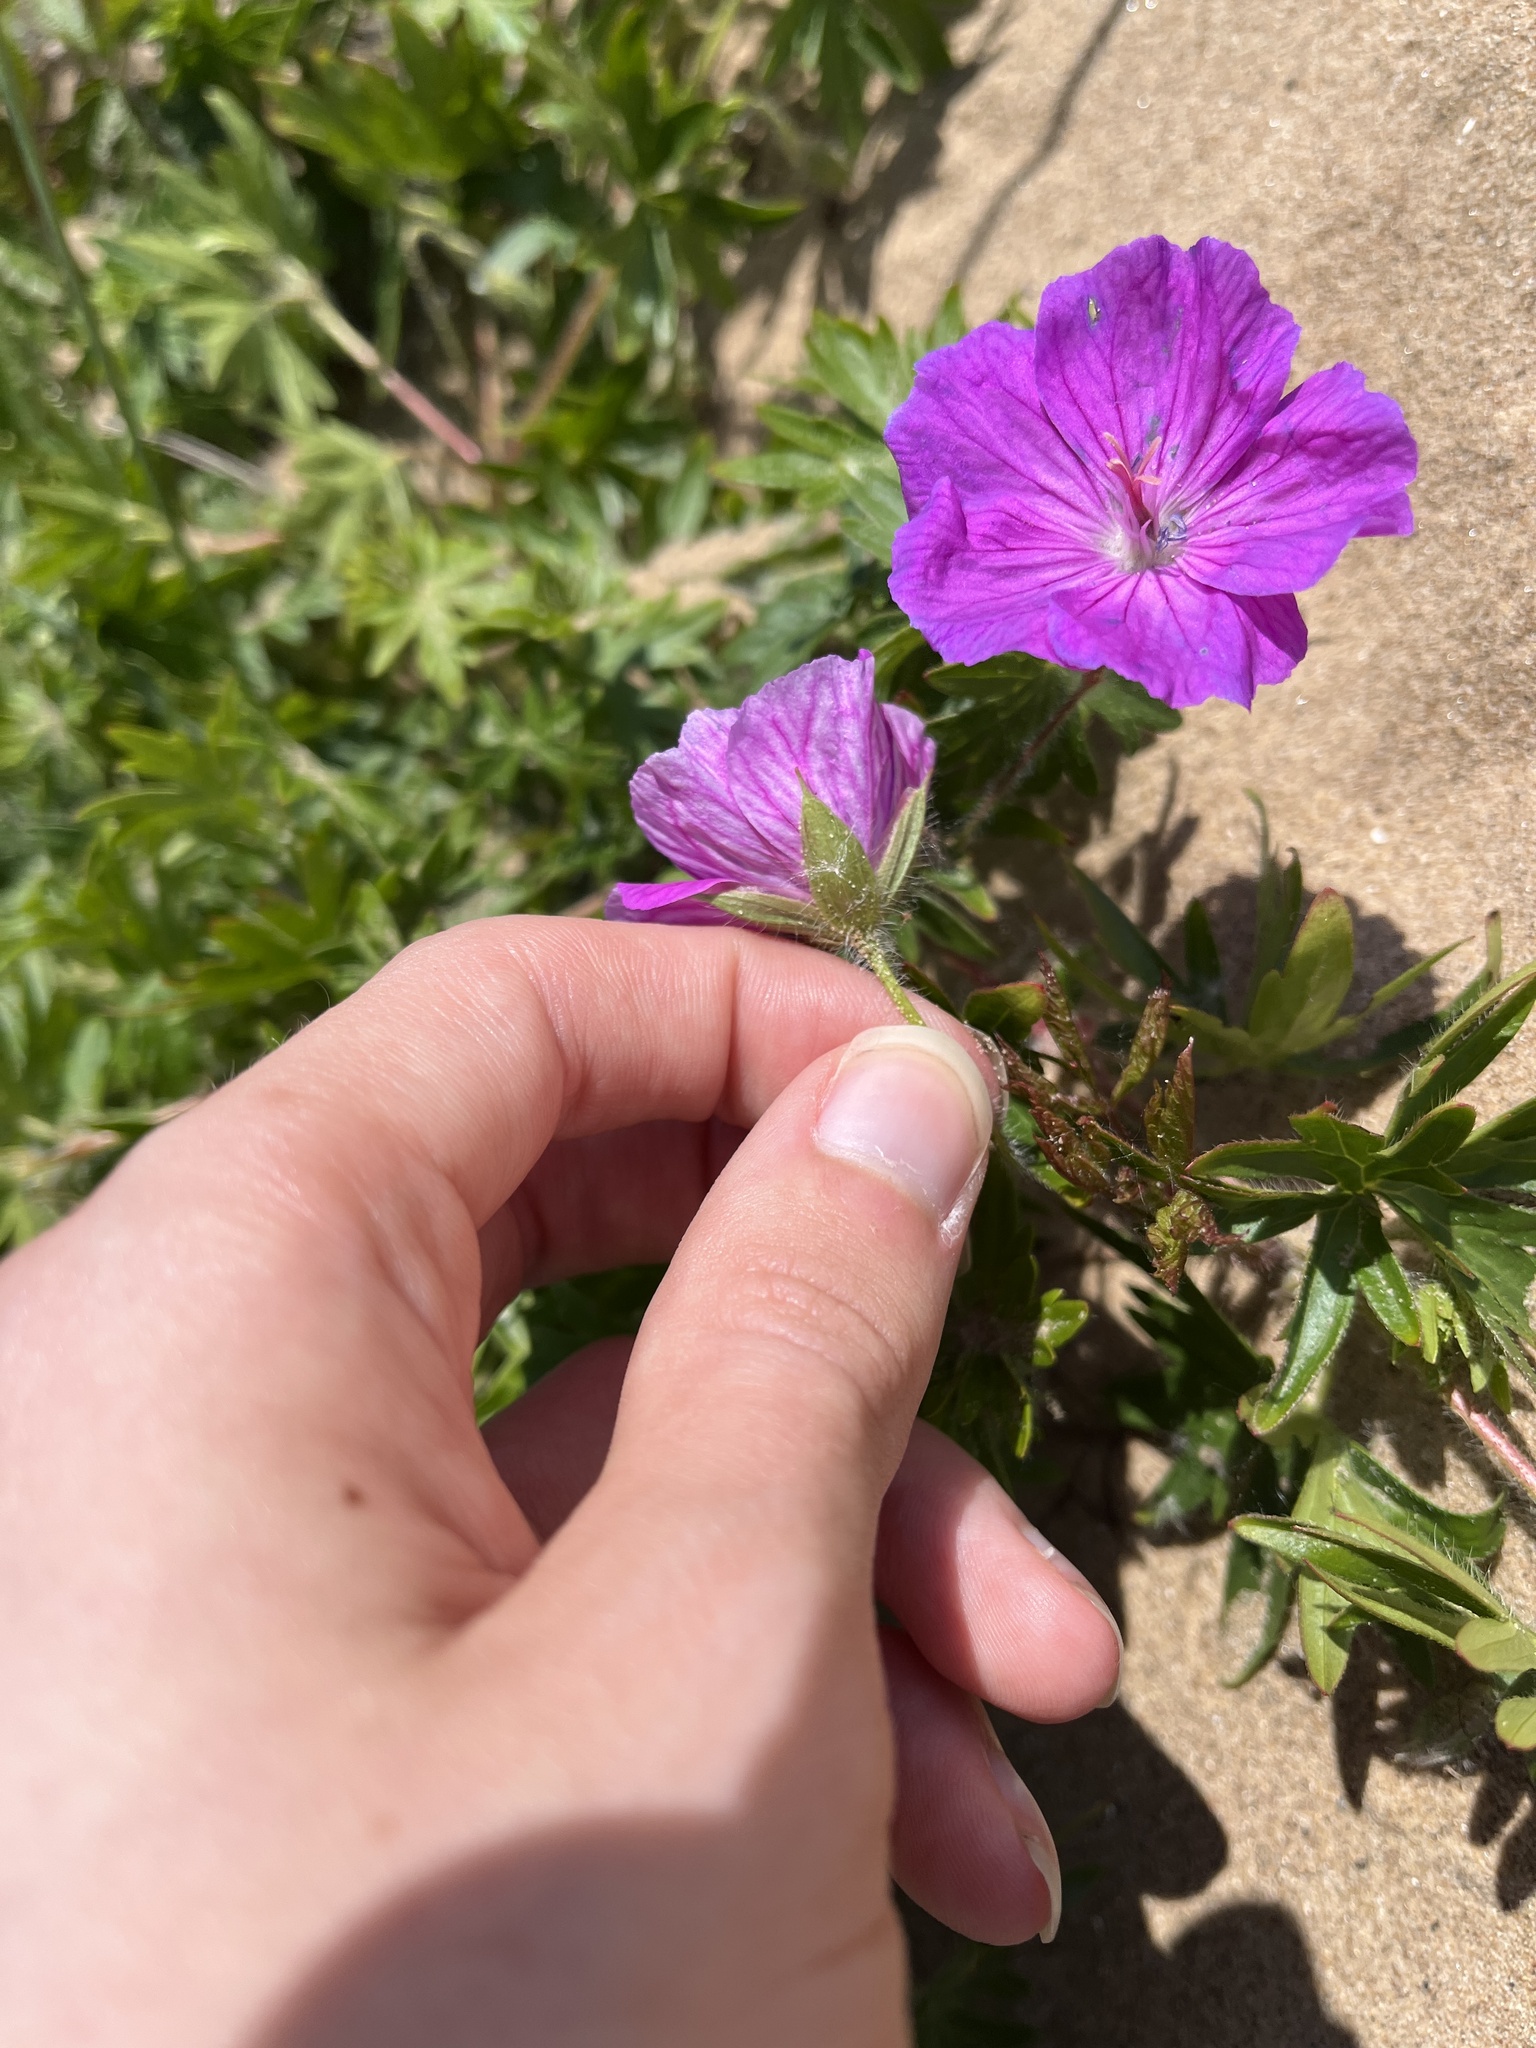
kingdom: Plantae
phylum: Tracheophyta
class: Magnoliopsida
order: Geraniales
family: Geraniaceae
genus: Geranium
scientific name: Geranium sanguineum
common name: Bloody crane's-bill
